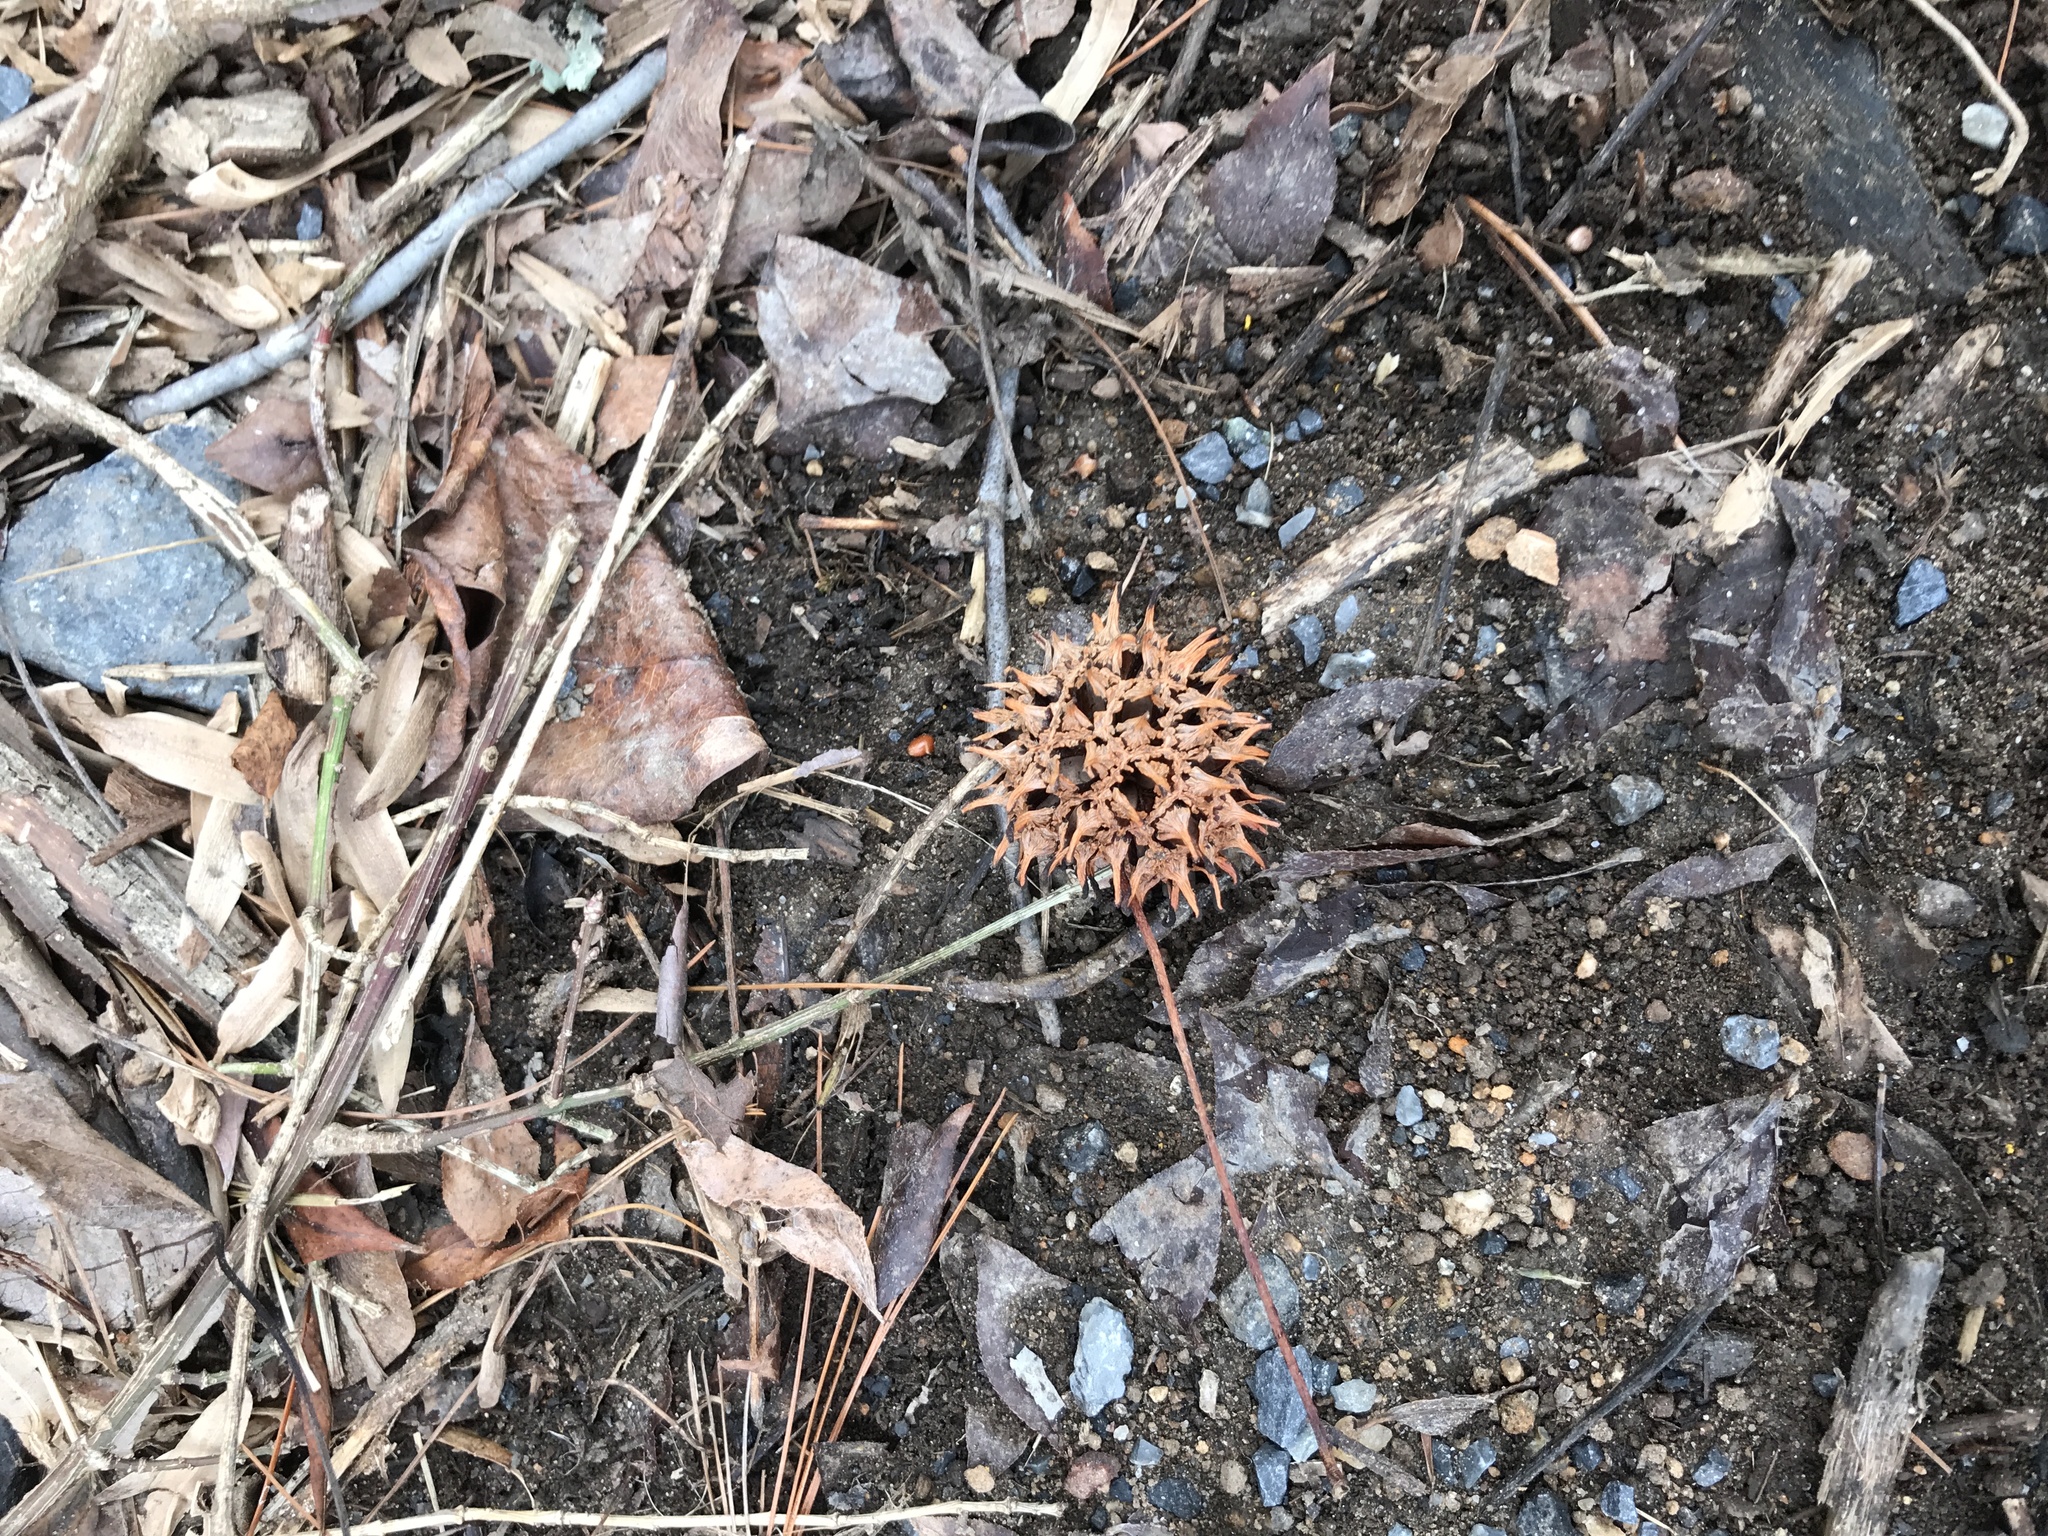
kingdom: Plantae
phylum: Tracheophyta
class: Magnoliopsida
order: Saxifragales
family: Altingiaceae
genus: Liquidambar
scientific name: Liquidambar styraciflua
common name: Sweet gum
